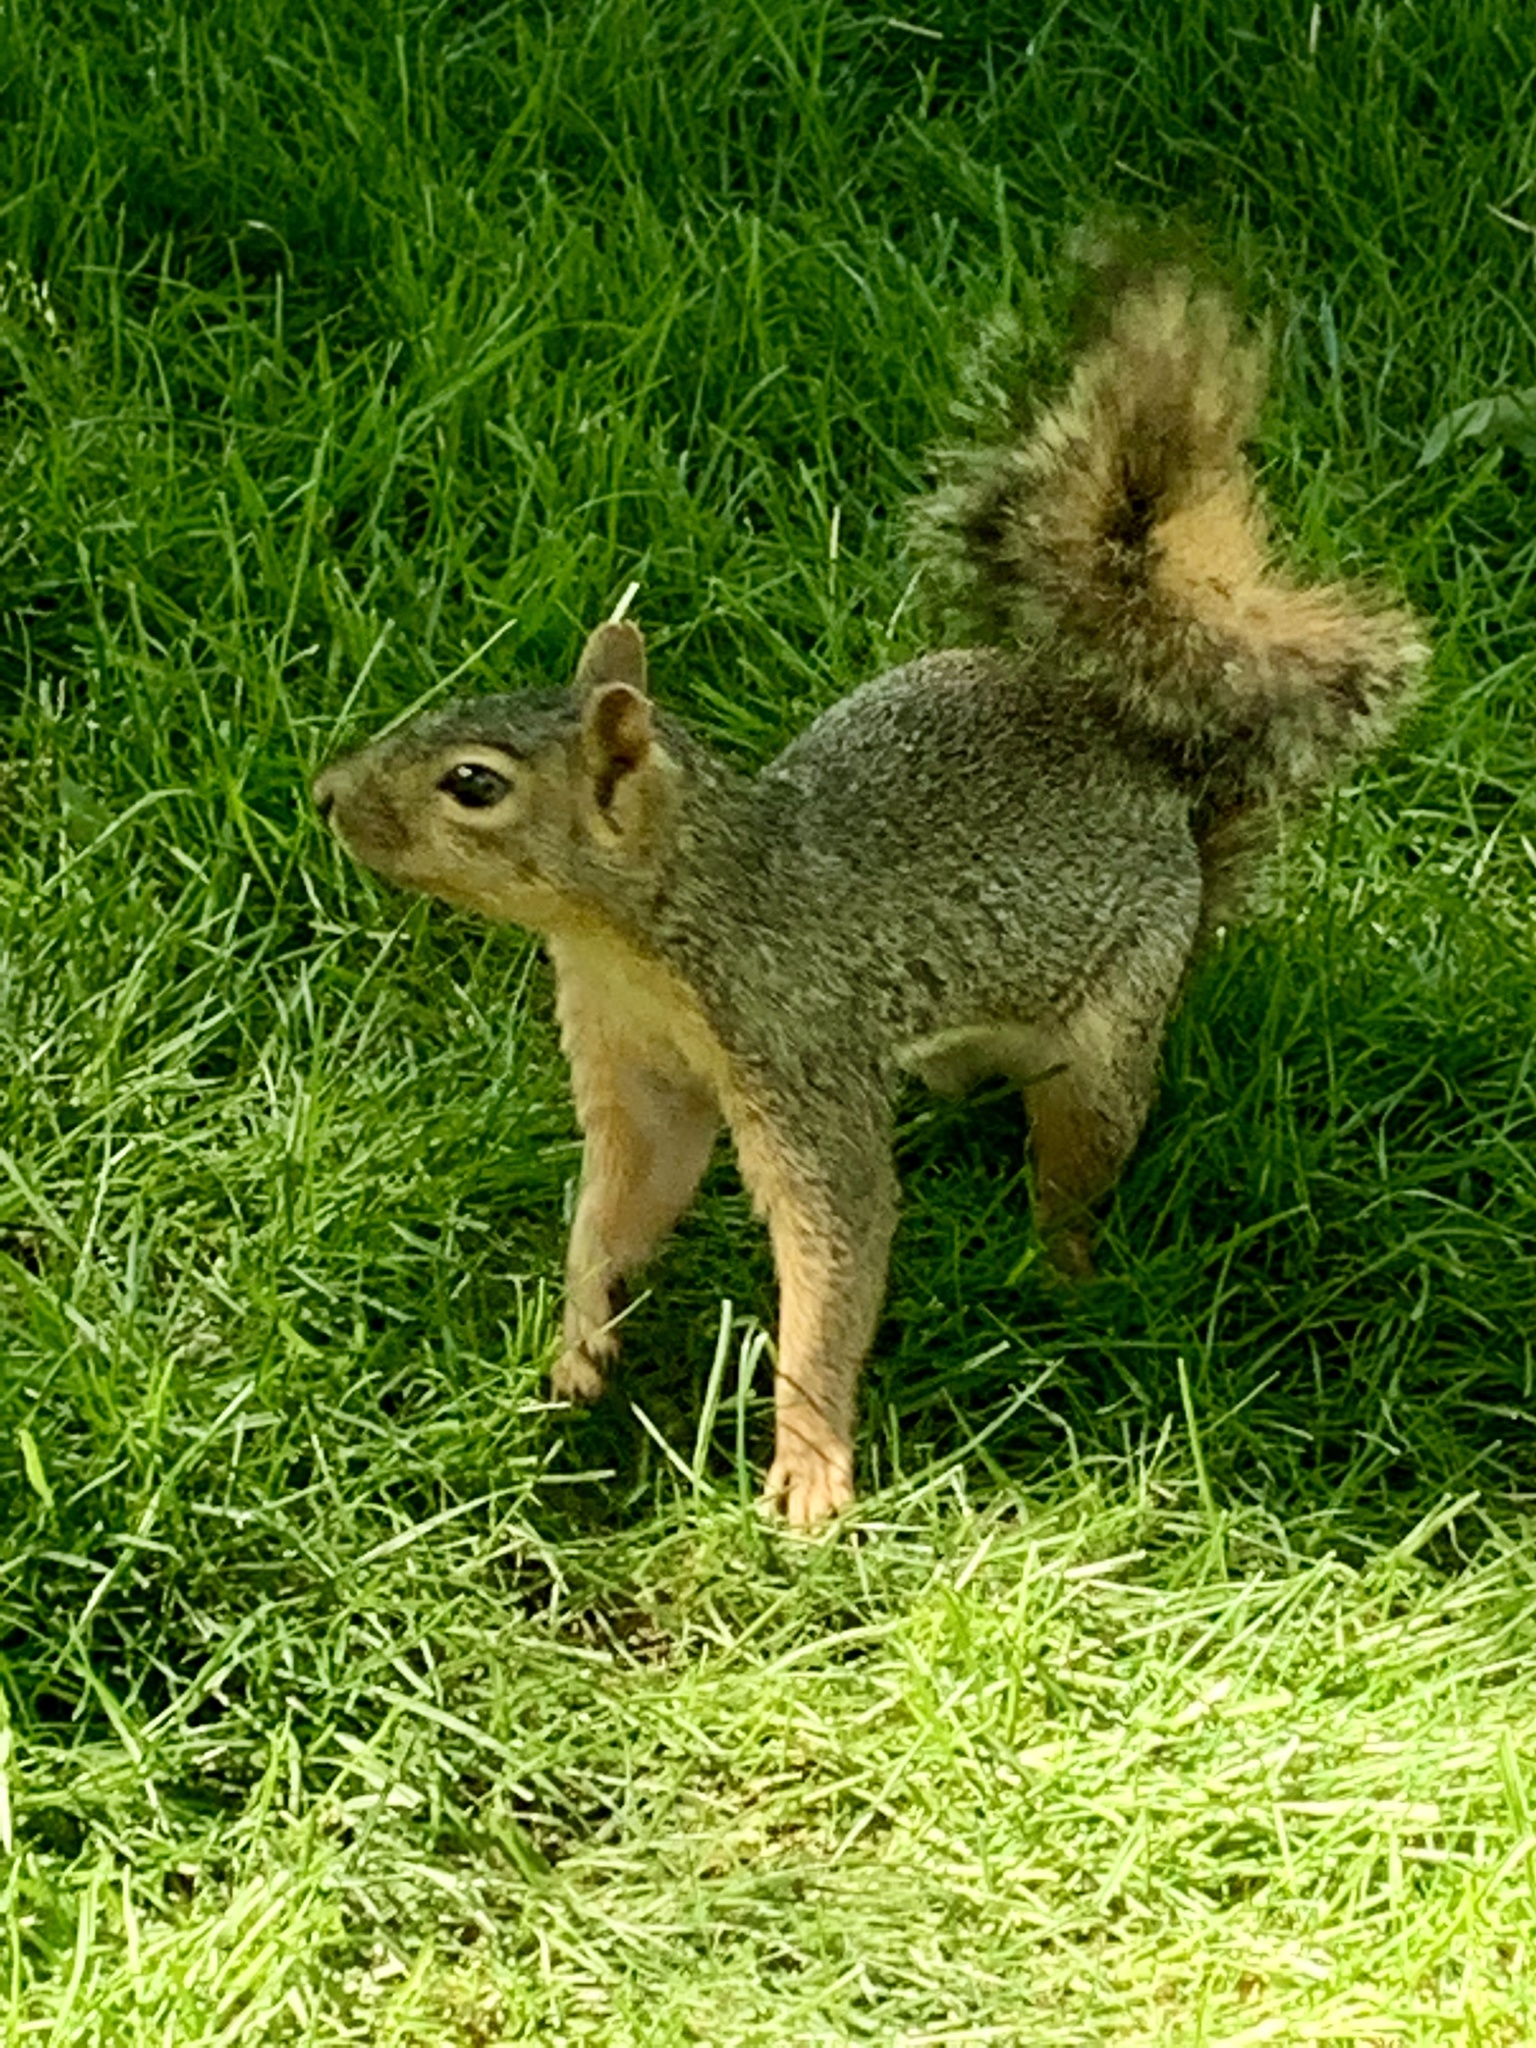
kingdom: Animalia
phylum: Chordata
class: Mammalia
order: Rodentia
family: Sciuridae
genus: Sciurus
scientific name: Sciurus niger
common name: Fox squirrel
